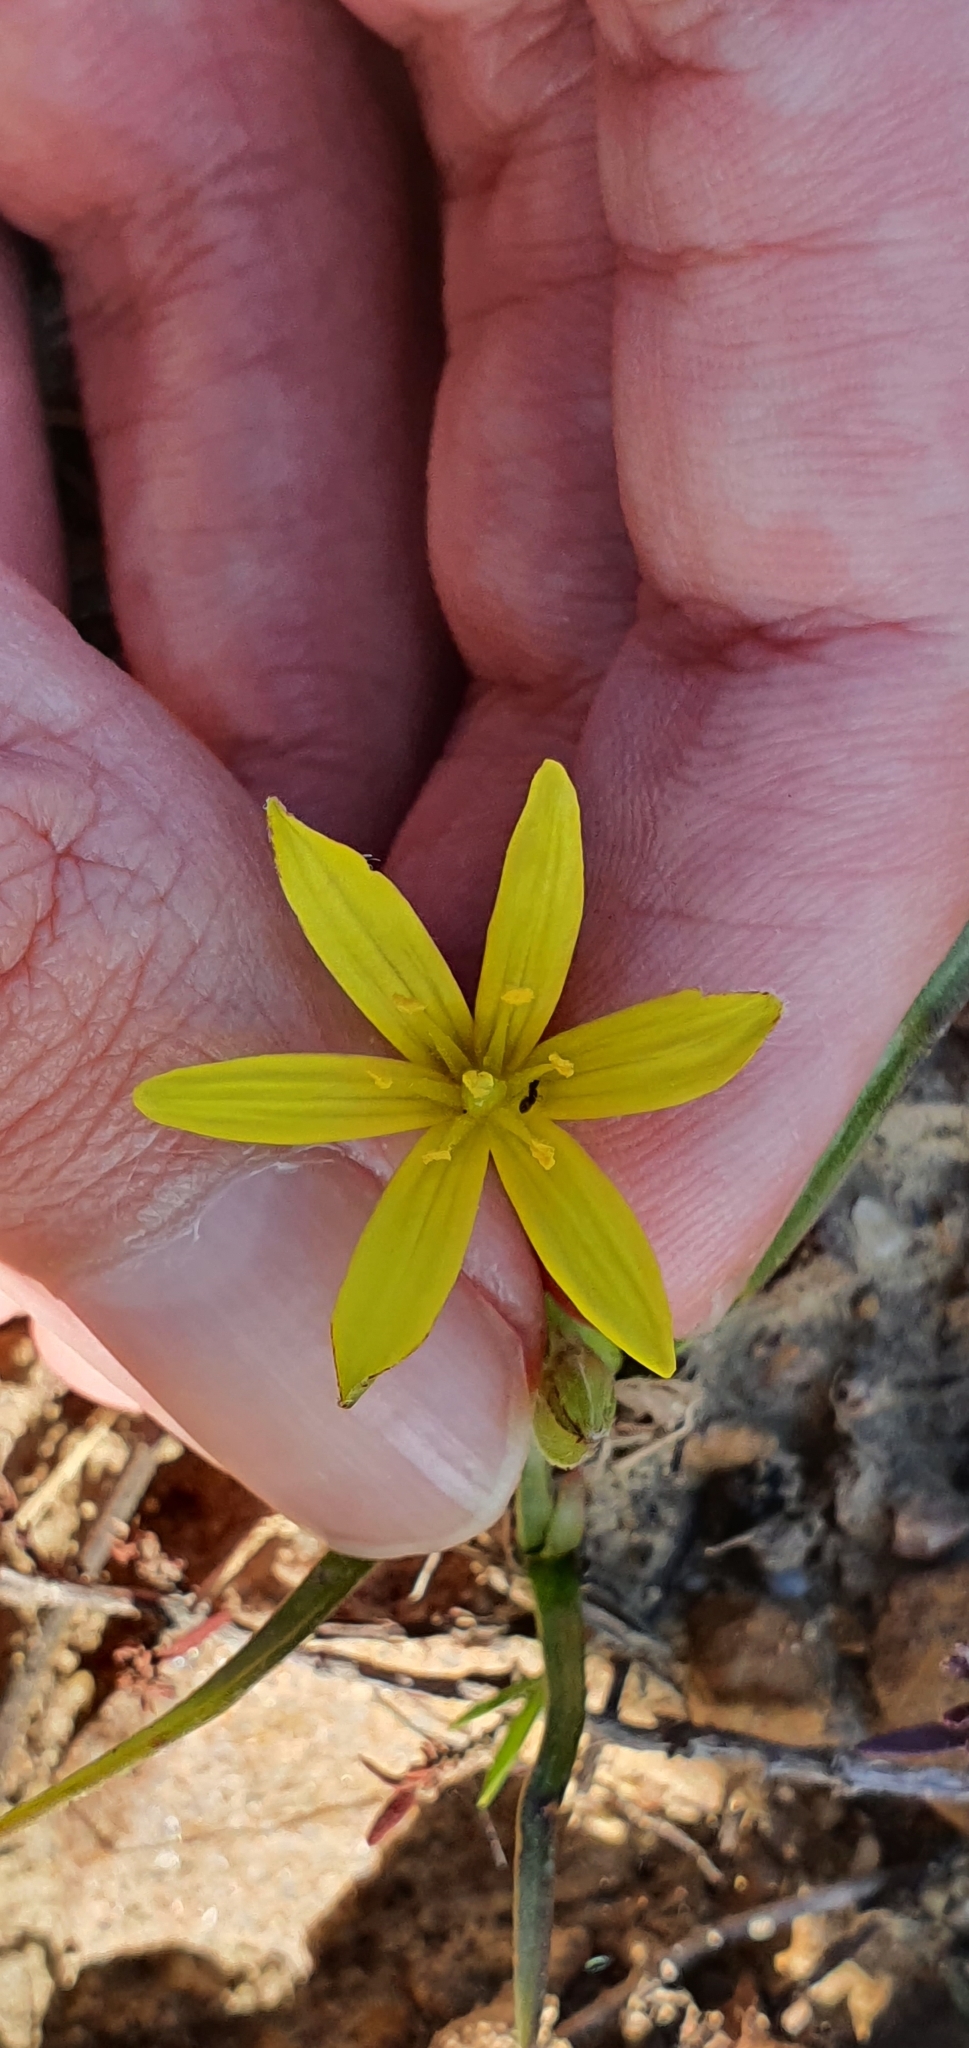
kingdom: Plantae
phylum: Tracheophyta
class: Liliopsida
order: Liliales
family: Liliaceae
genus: Gagea
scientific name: Gagea granatellii
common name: Granatelli’s gagea
